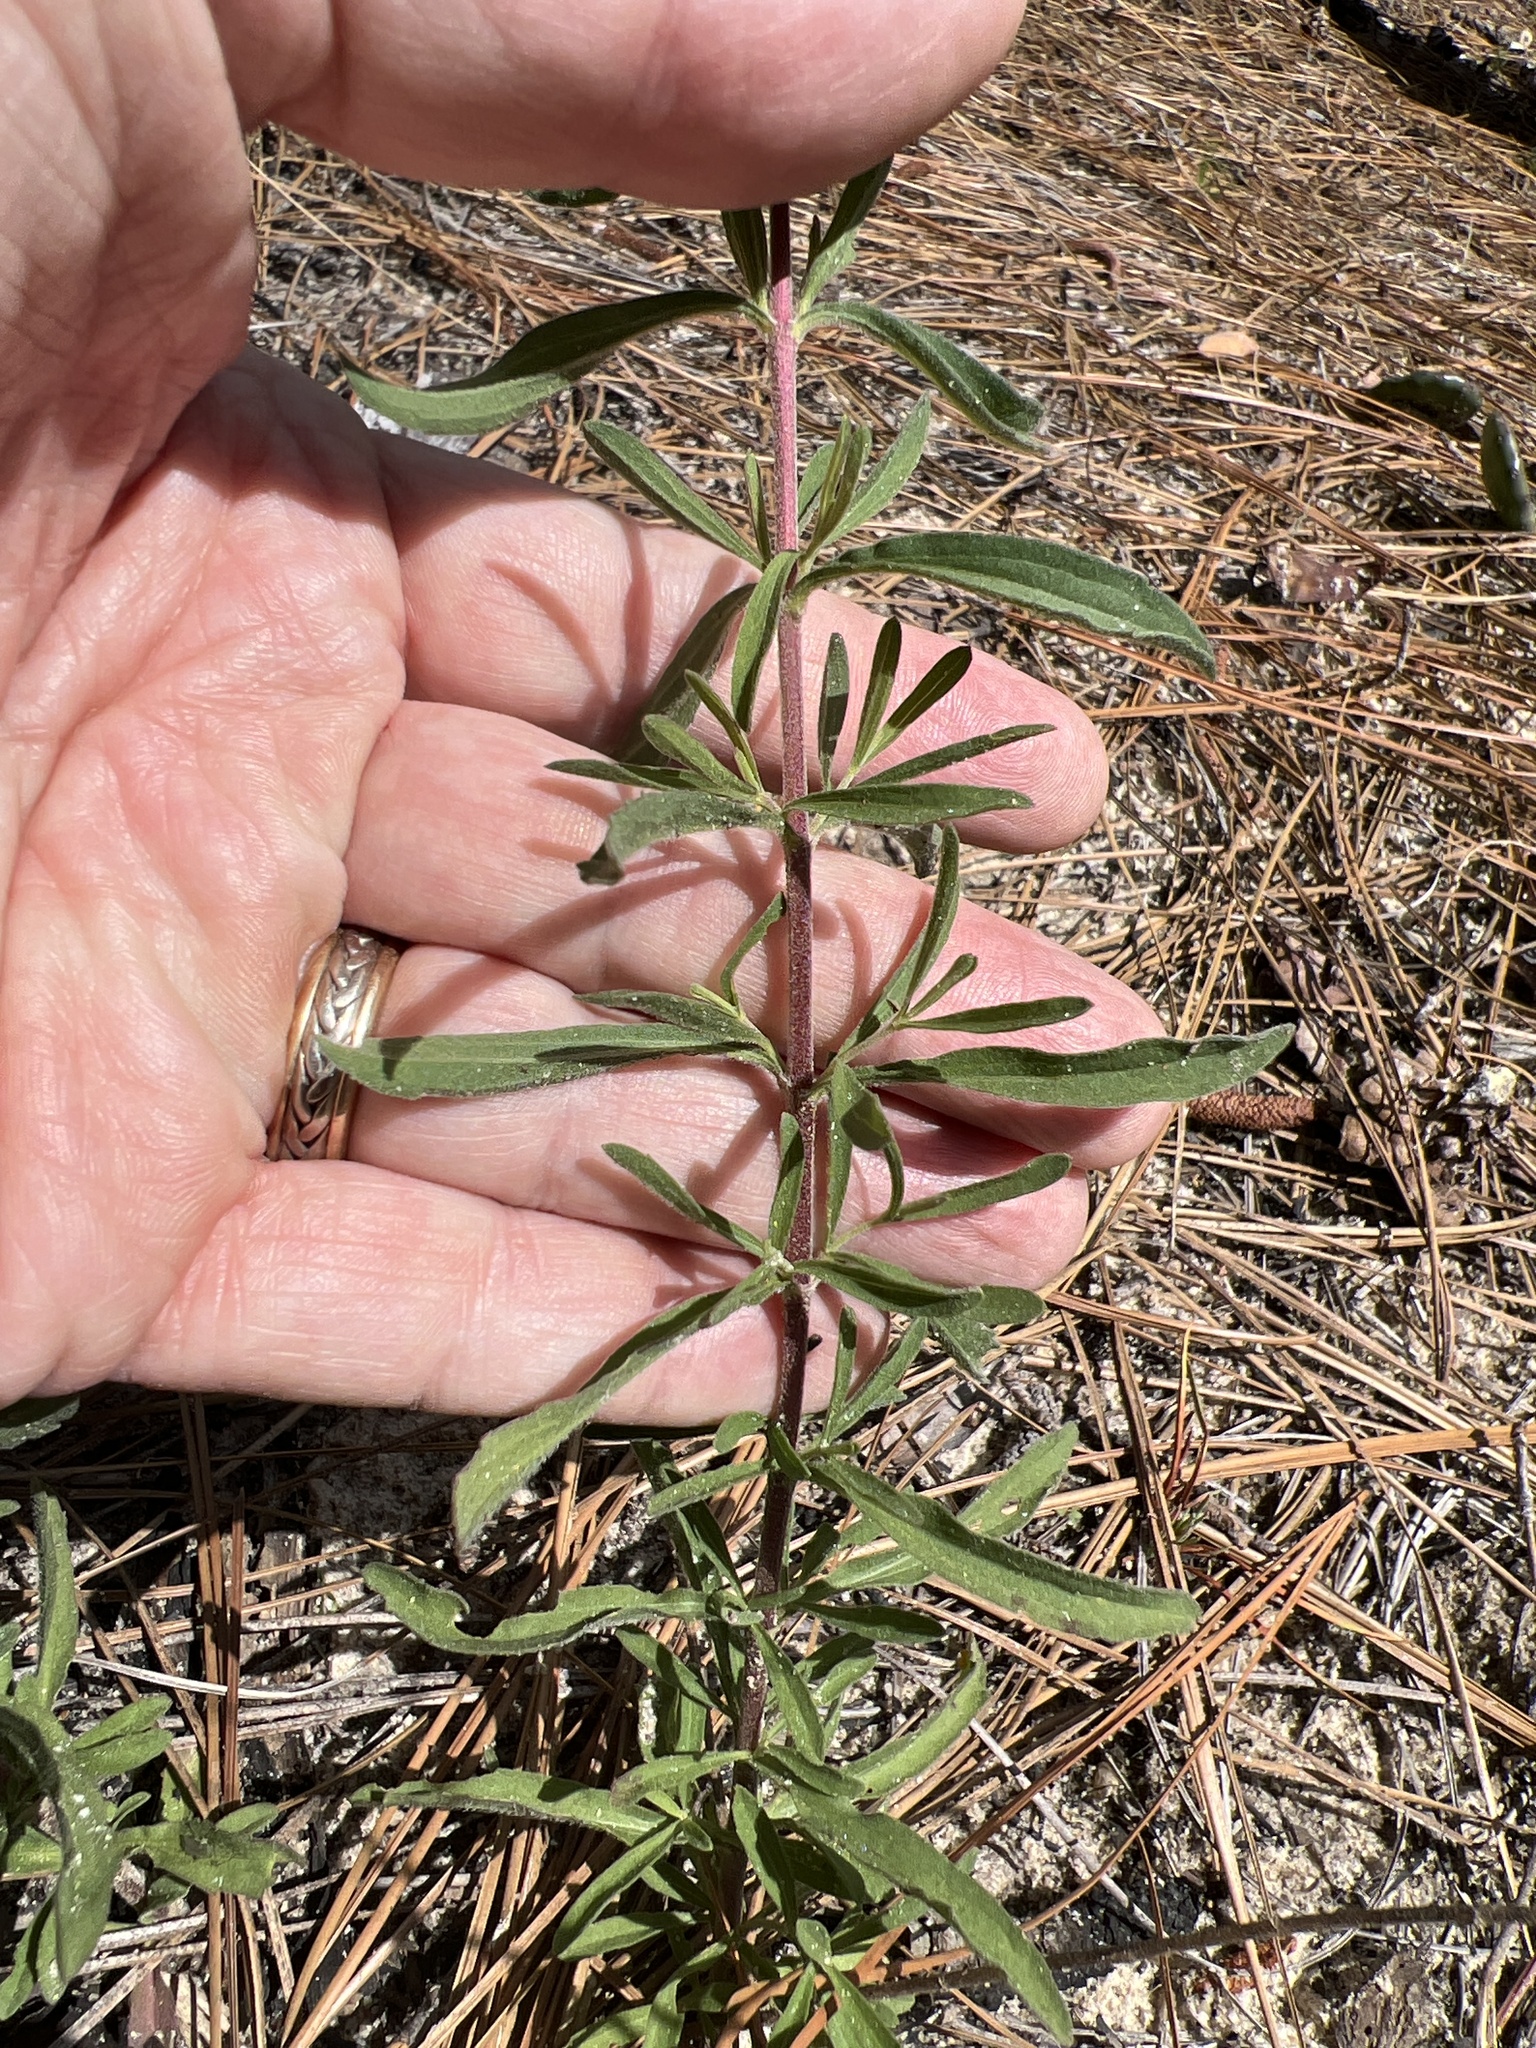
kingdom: Plantae
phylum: Tracheophyta
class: Magnoliopsida
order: Asterales
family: Asteraceae
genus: Eupatorium
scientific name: Eupatorium linearifolium
